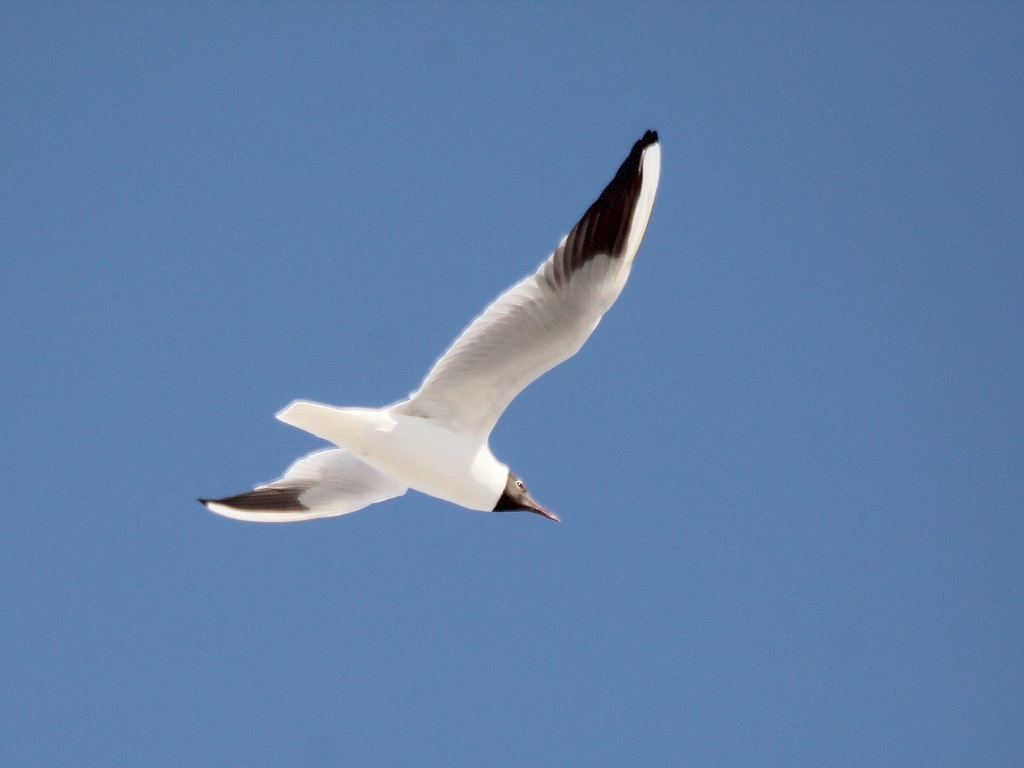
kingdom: Animalia
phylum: Chordata
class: Aves
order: Charadriiformes
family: Laridae
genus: Chroicocephalus
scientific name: Chroicocephalus ridibundus
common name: Black-headed gull
